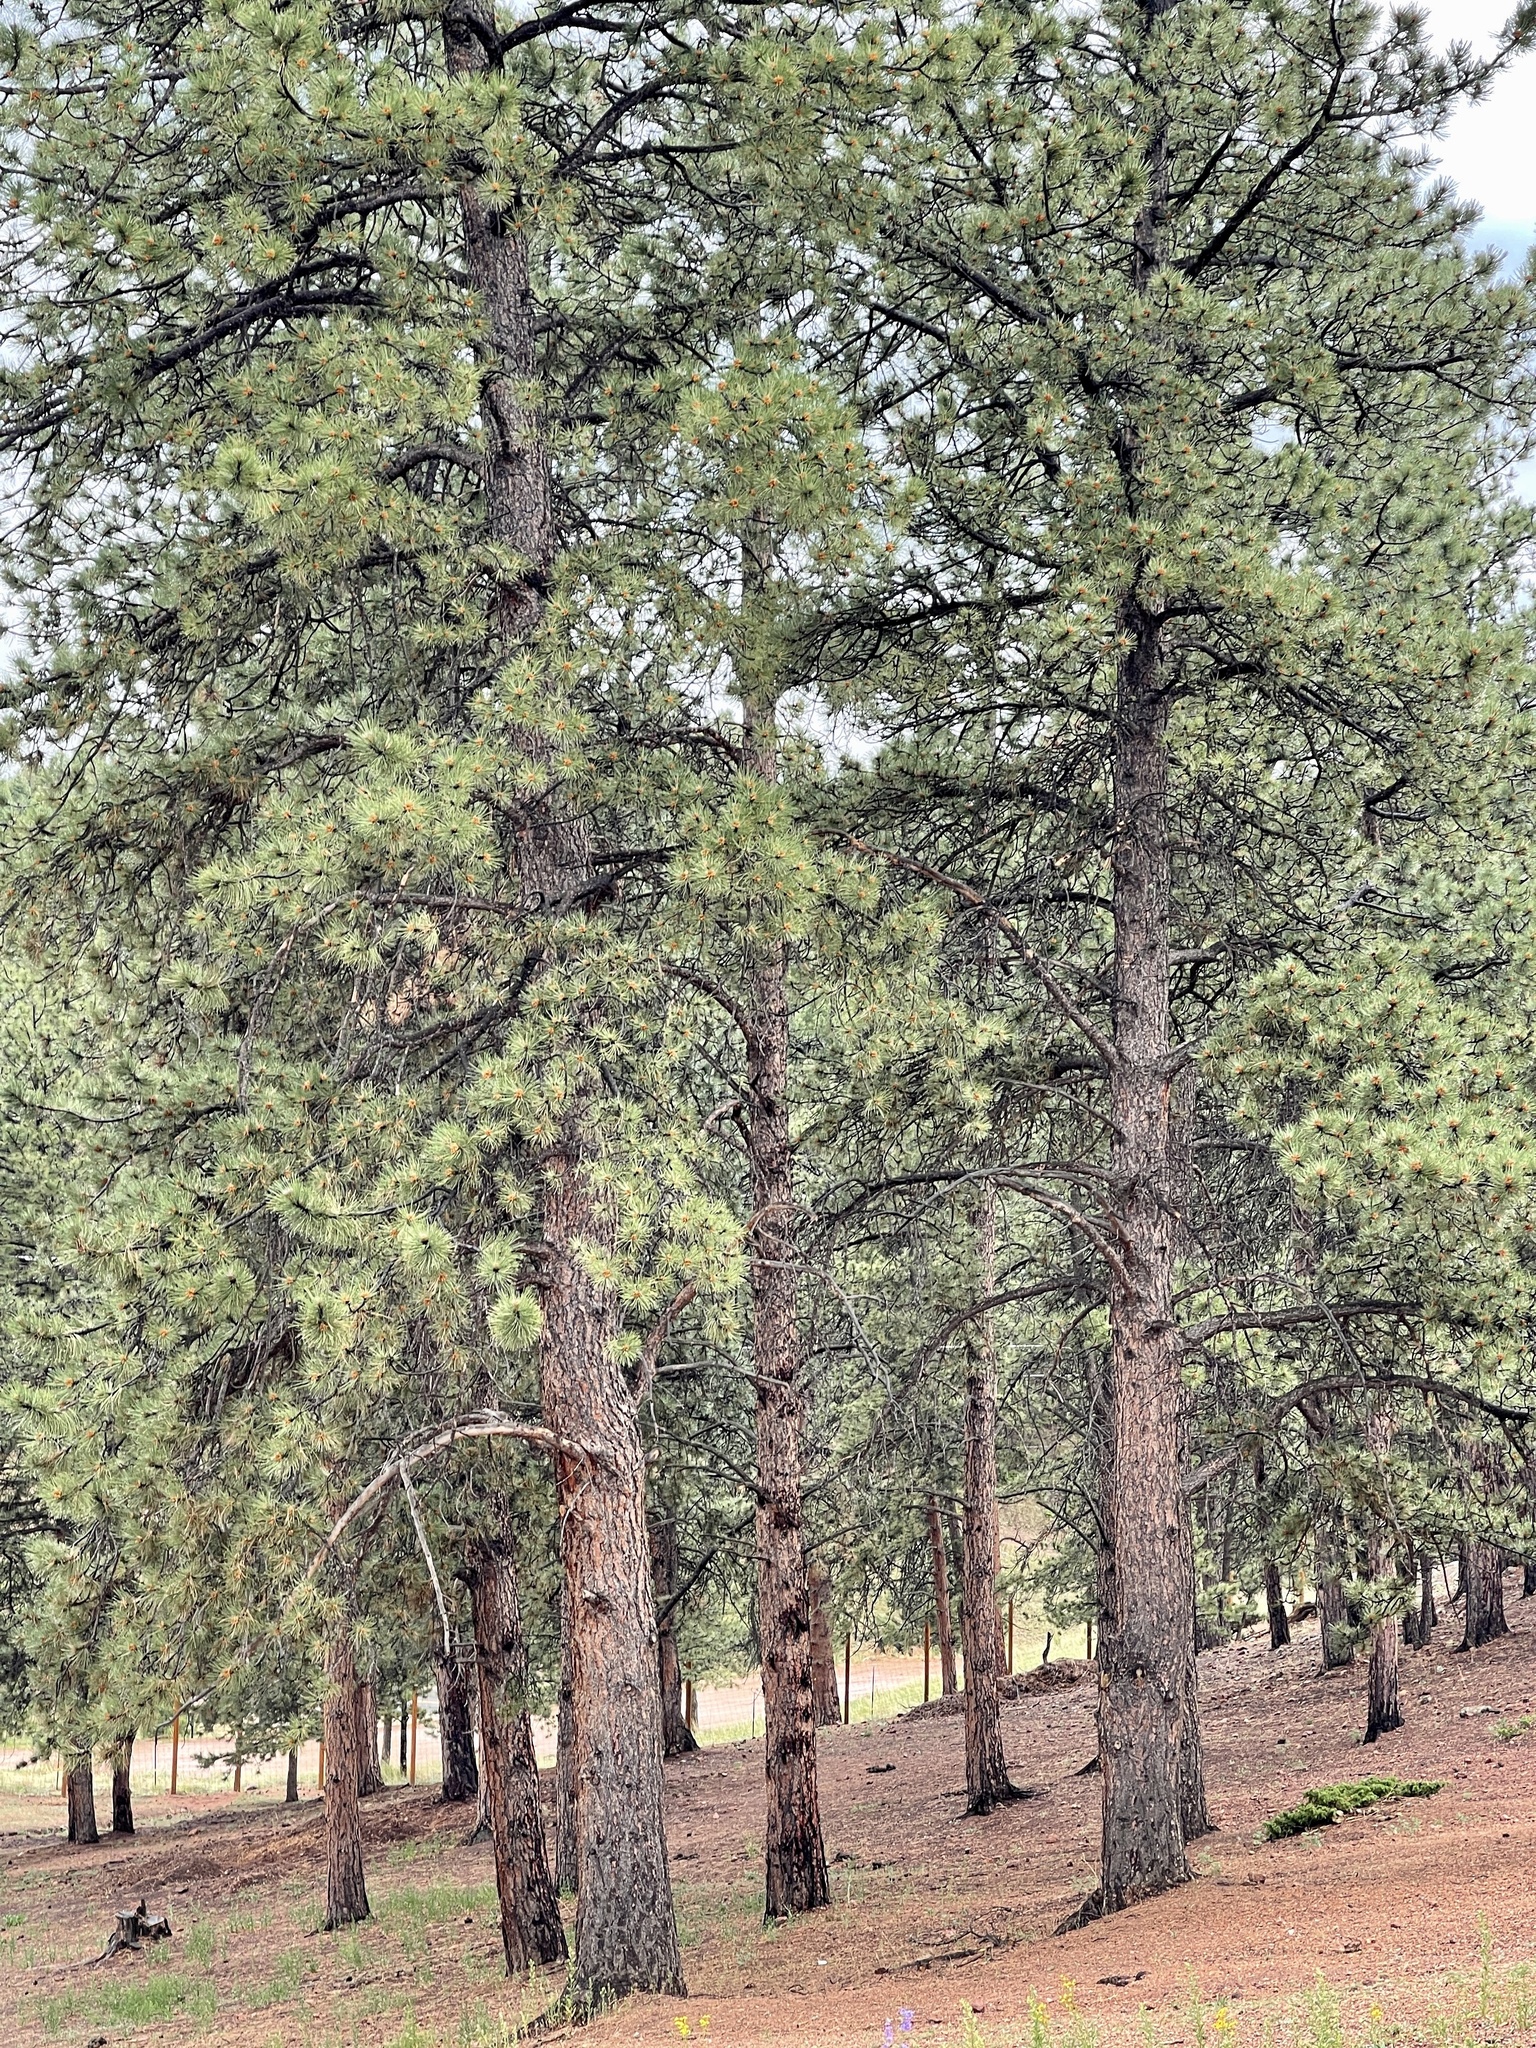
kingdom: Plantae
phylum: Tracheophyta
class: Pinopsida
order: Pinales
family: Pinaceae
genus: Pinus
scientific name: Pinus ponderosa
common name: Western yellow-pine
